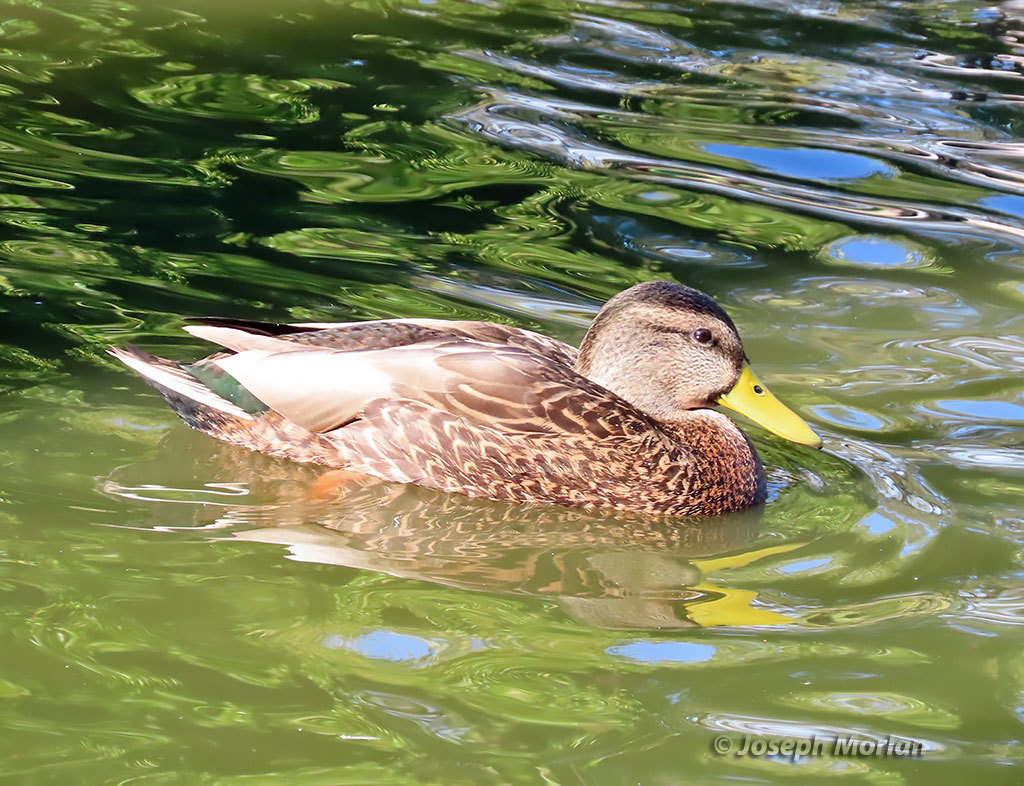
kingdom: Animalia
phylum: Chordata
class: Aves
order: Anseriformes
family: Anatidae
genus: Anas
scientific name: Anas
